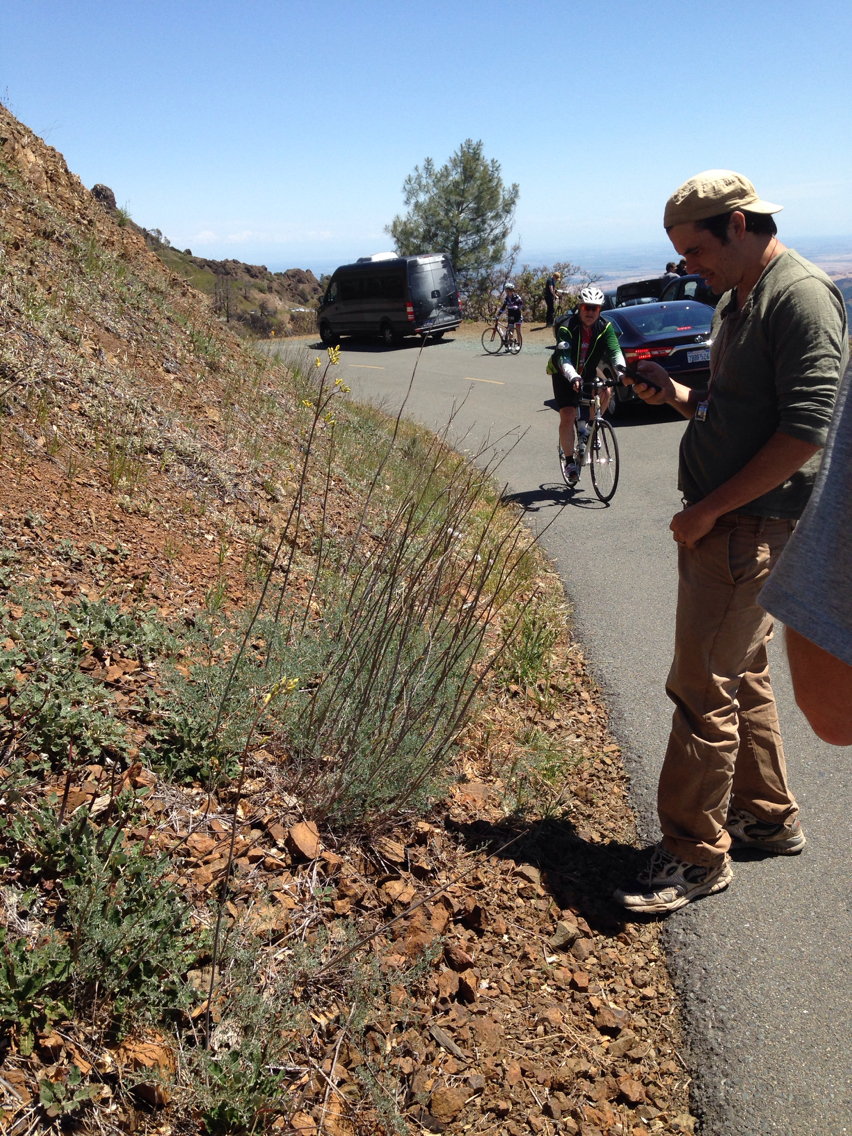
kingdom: Plantae
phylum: Tracheophyta
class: Magnoliopsida
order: Ranunculales
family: Papaveraceae
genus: Ehrendorferia
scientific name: Ehrendorferia chrysantha
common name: Golden eardrops
